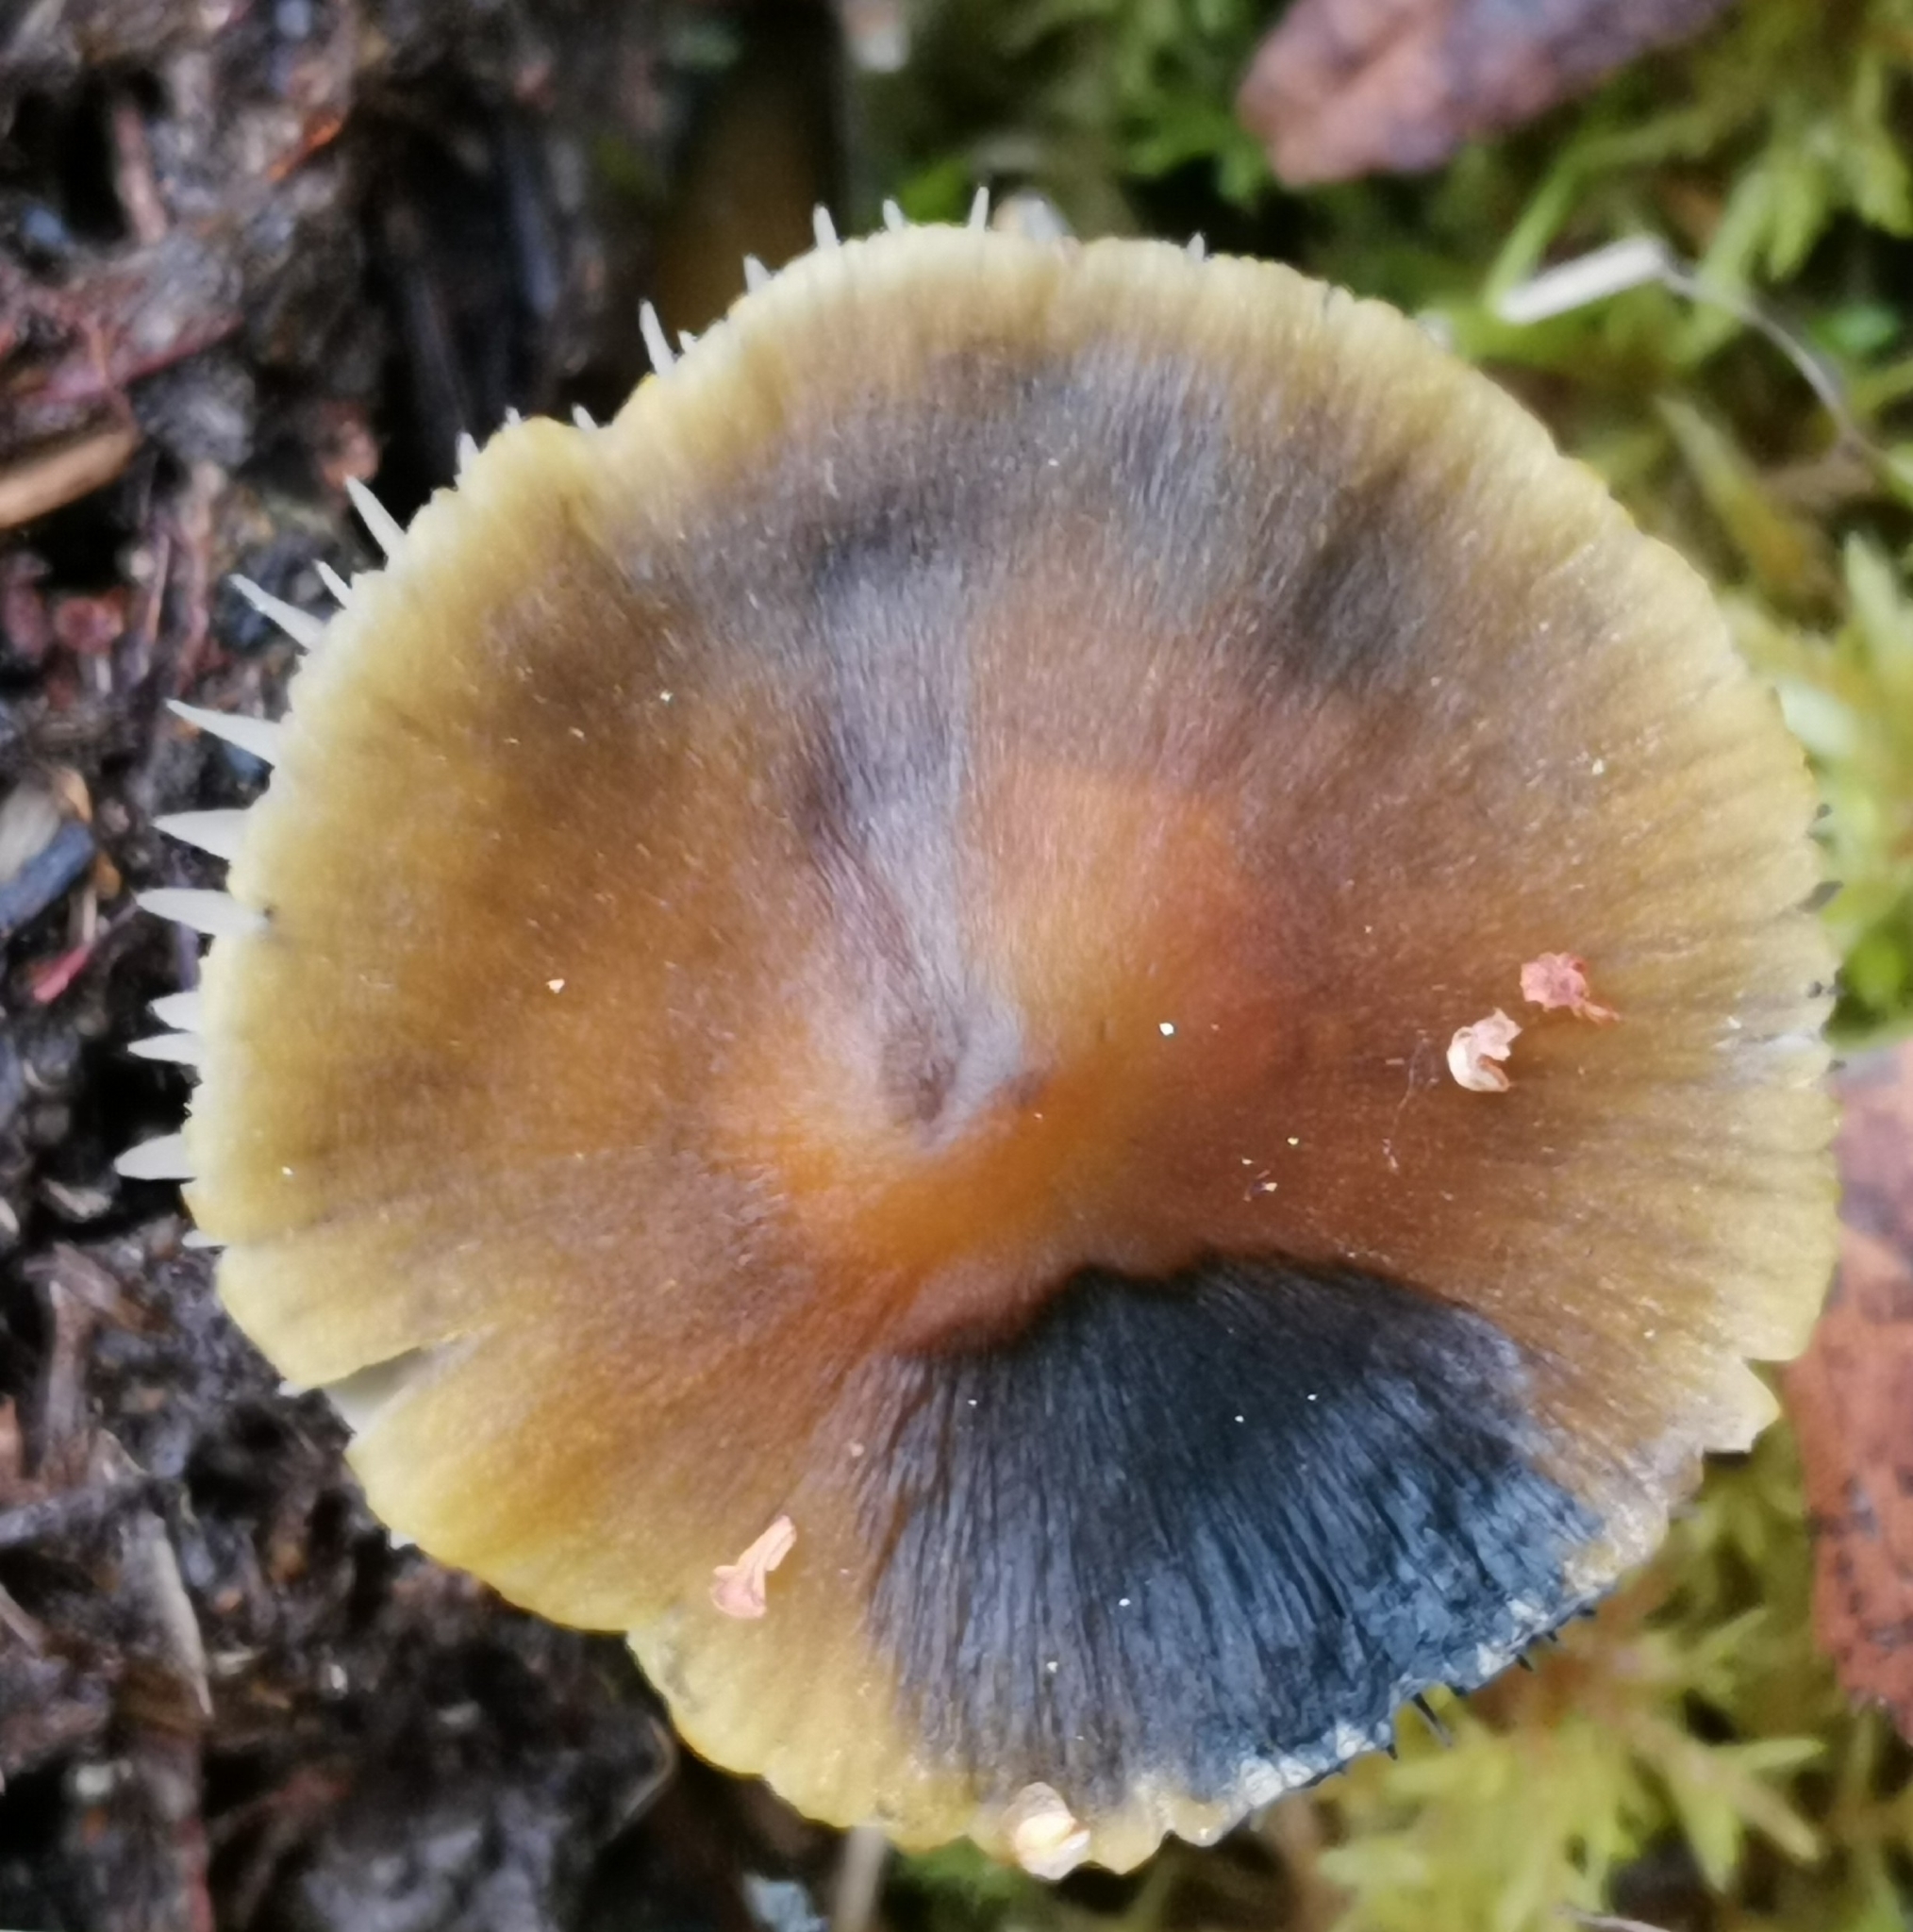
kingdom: Fungi
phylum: Basidiomycota
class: Agaricomycetes
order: Agaricales
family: Hygrophoraceae
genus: Hygrocybe
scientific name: Hygrocybe conica
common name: Blackening wax-cap
